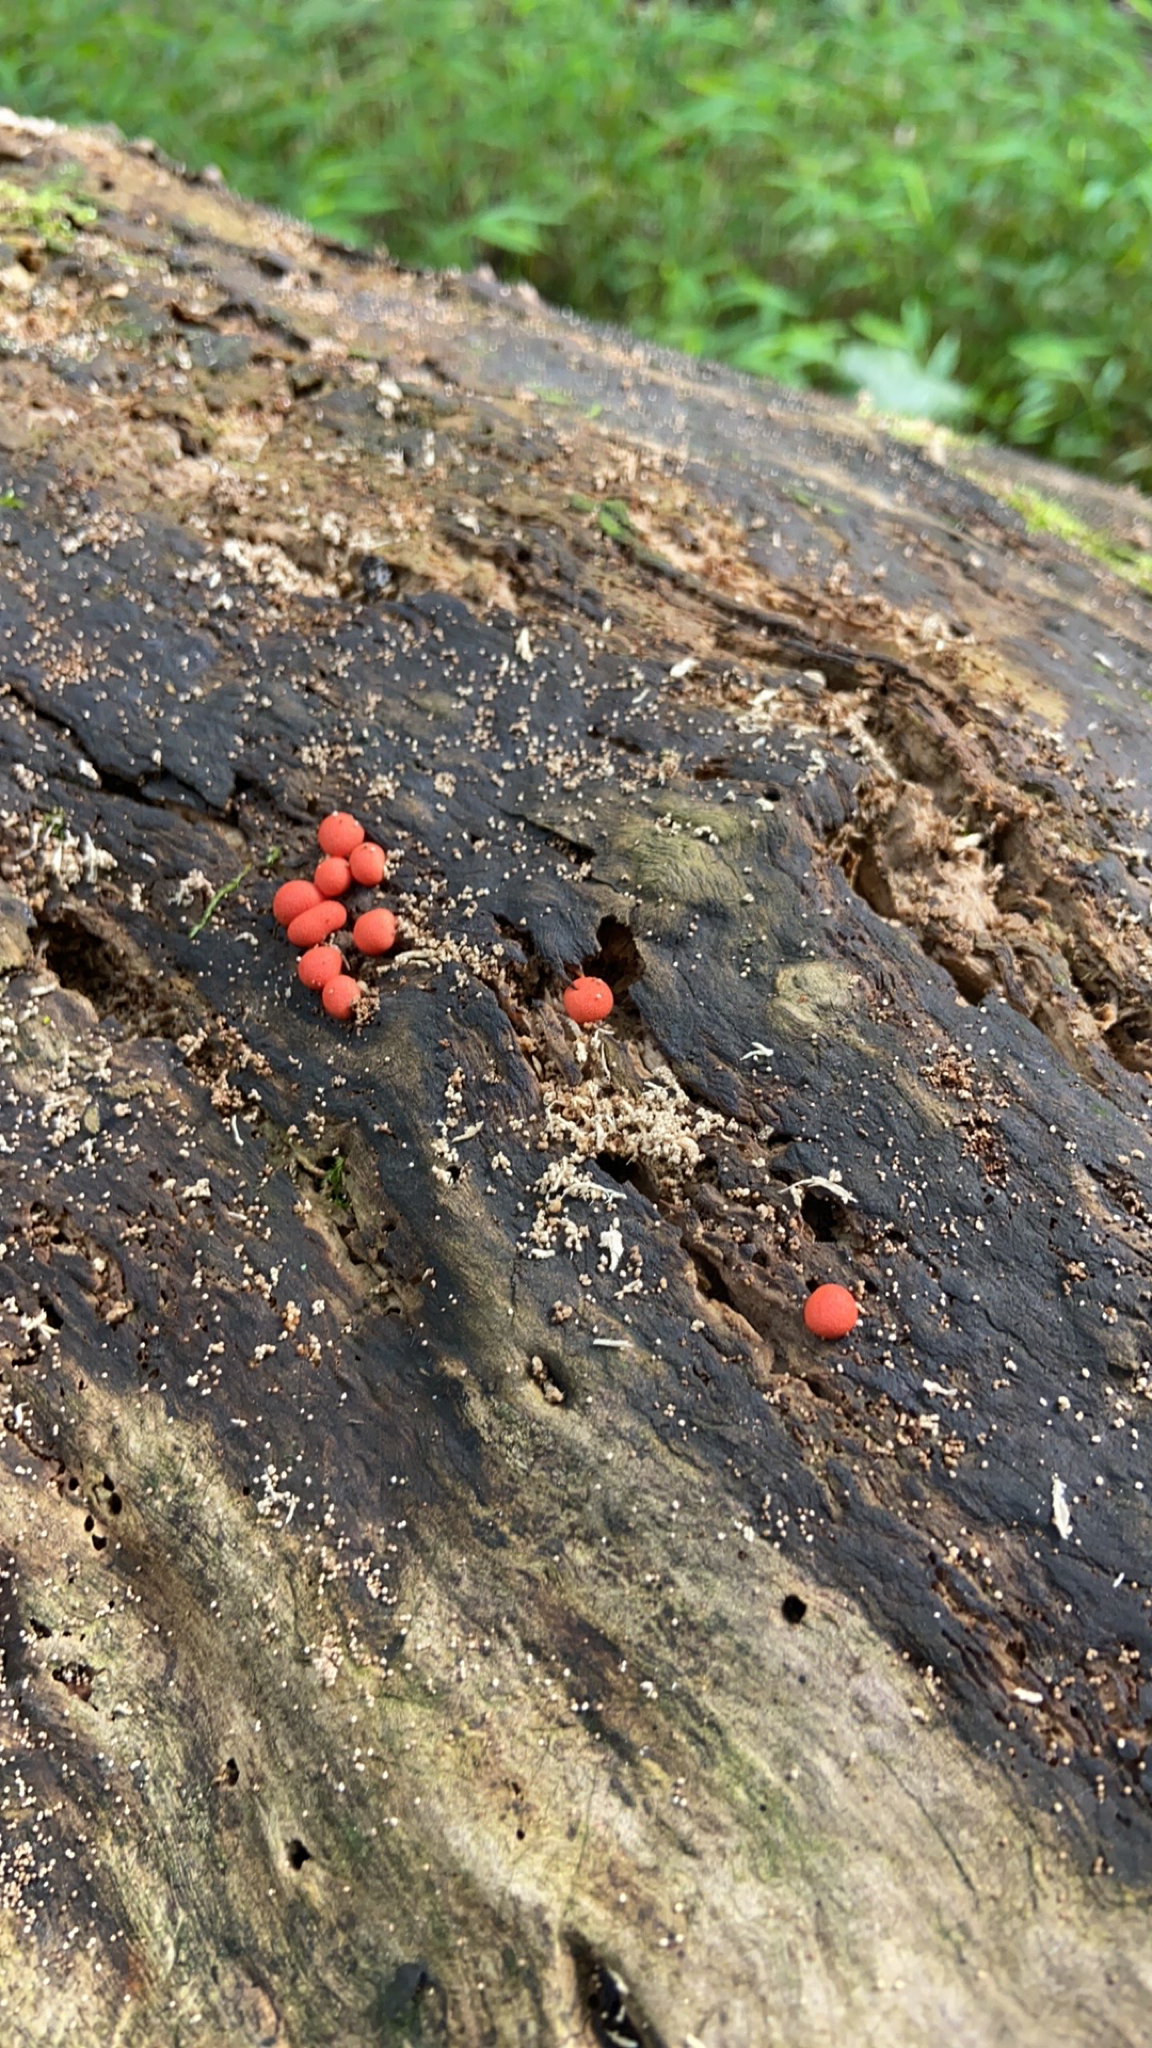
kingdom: Protozoa
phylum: Mycetozoa
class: Myxomycetes
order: Cribrariales
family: Tubiferaceae
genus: Lycogala
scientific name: Lycogala epidendrum
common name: Wolf's milk
